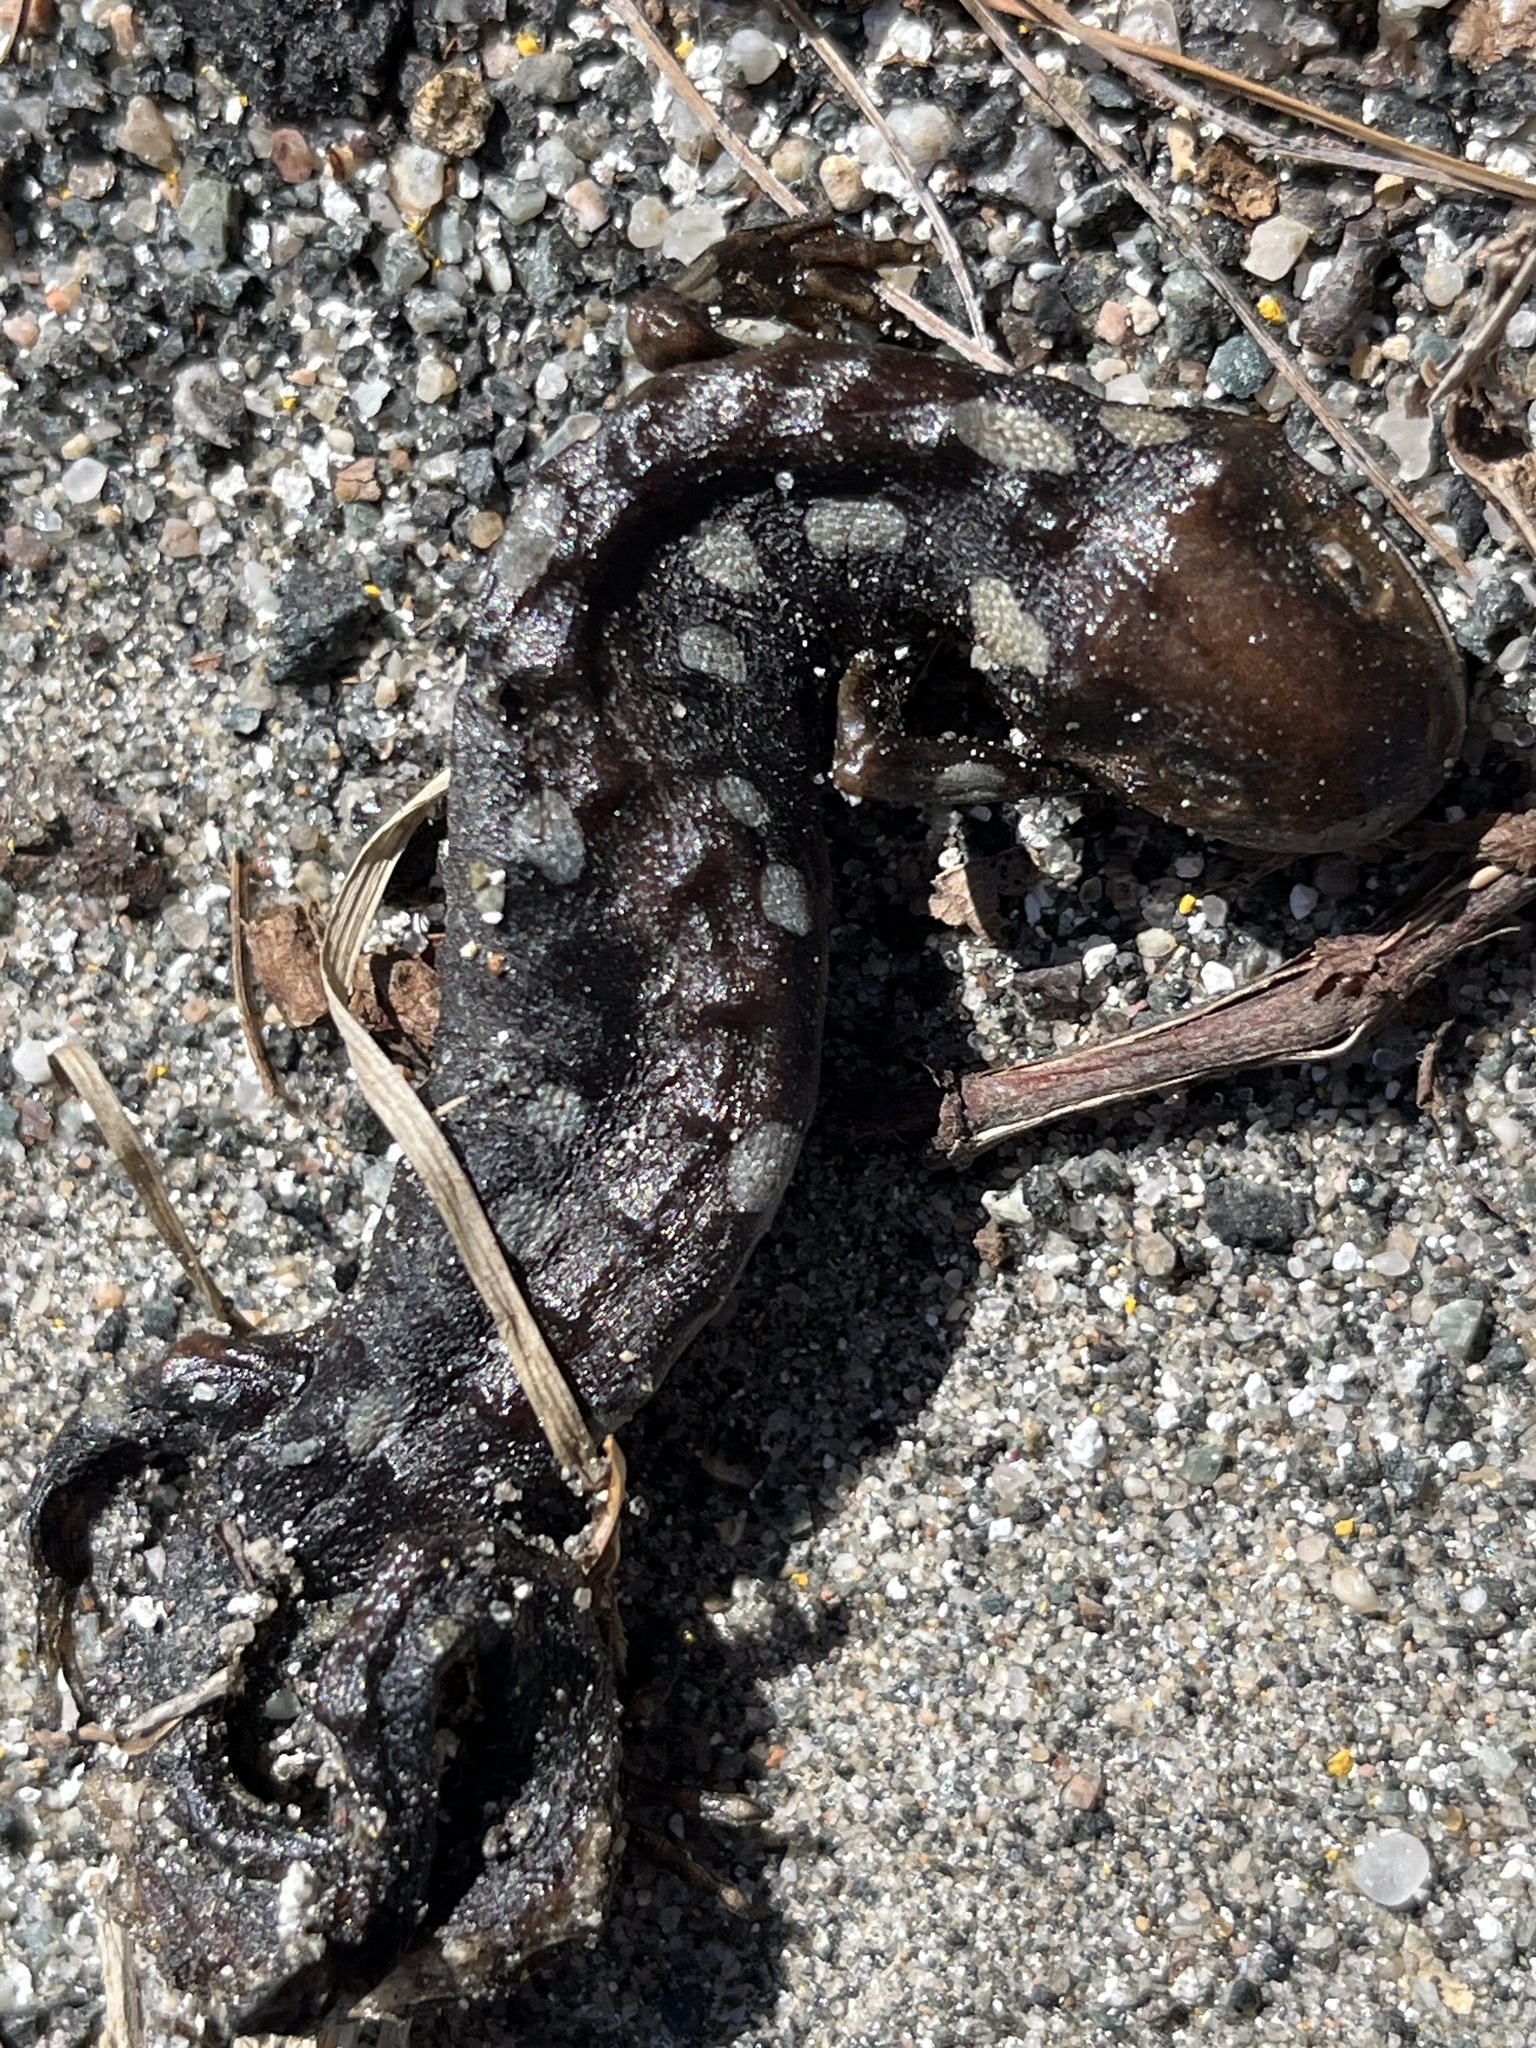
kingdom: Animalia
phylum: Chordata
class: Amphibia
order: Caudata
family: Ambystomatidae
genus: Ambystoma
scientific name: Ambystoma maculatum
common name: Spotted salamander
